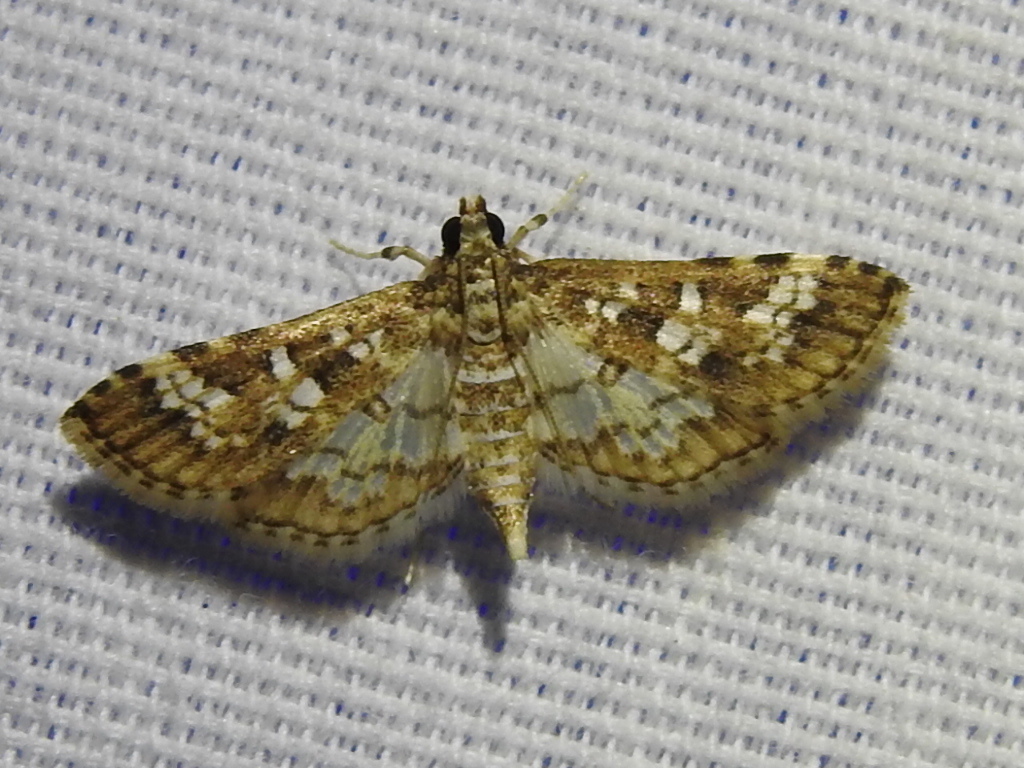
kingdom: Animalia
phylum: Arthropoda
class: Insecta
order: Lepidoptera
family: Crambidae
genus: Samea
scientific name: Samea multiplicalis
